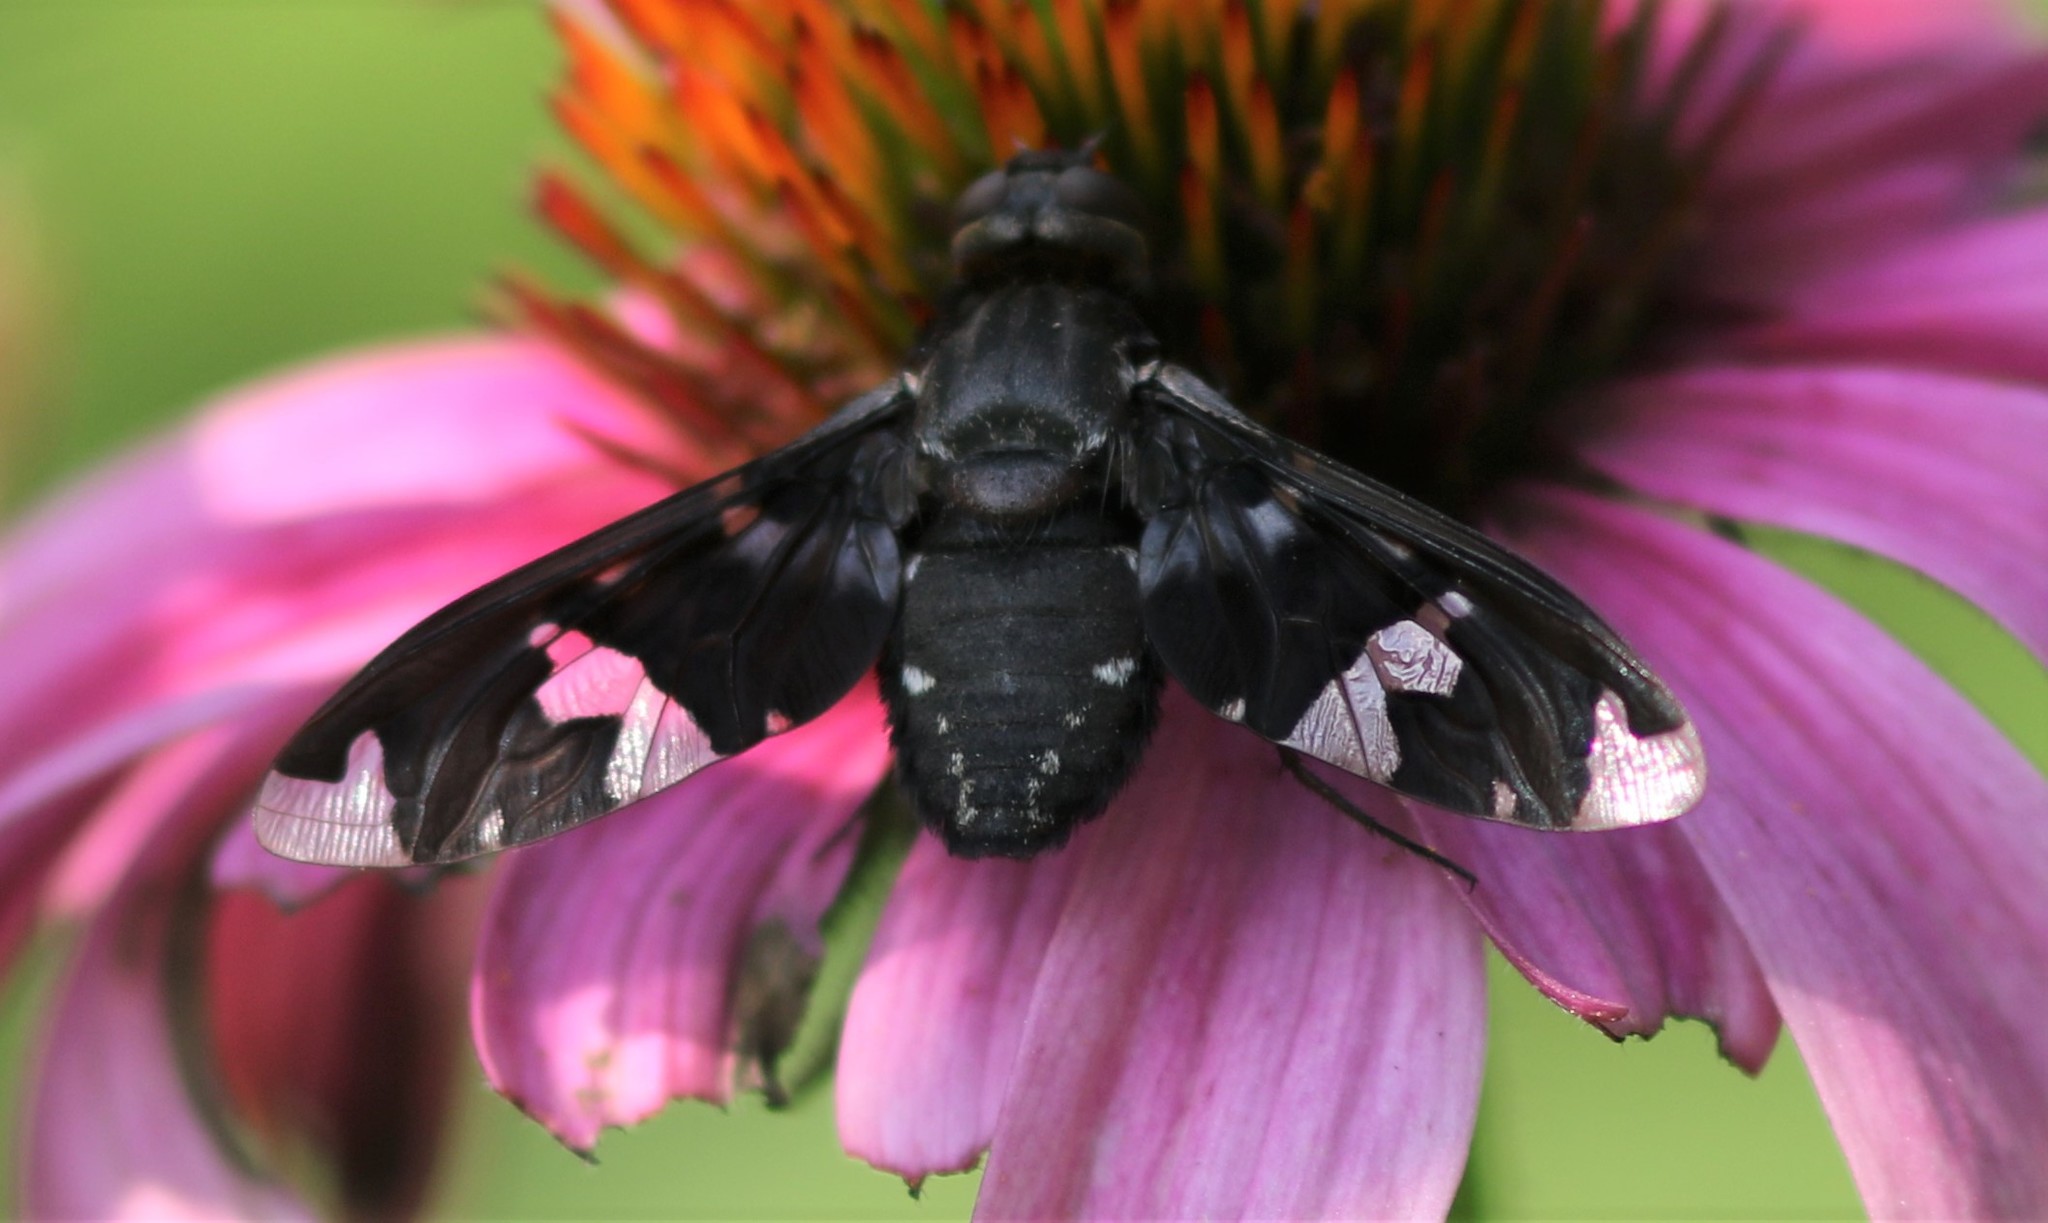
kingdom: Animalia
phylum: Arthropoda
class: Insecta
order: Diptera
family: Bombyliidae
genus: Exoprosopa
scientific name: Exoprosopa decora
